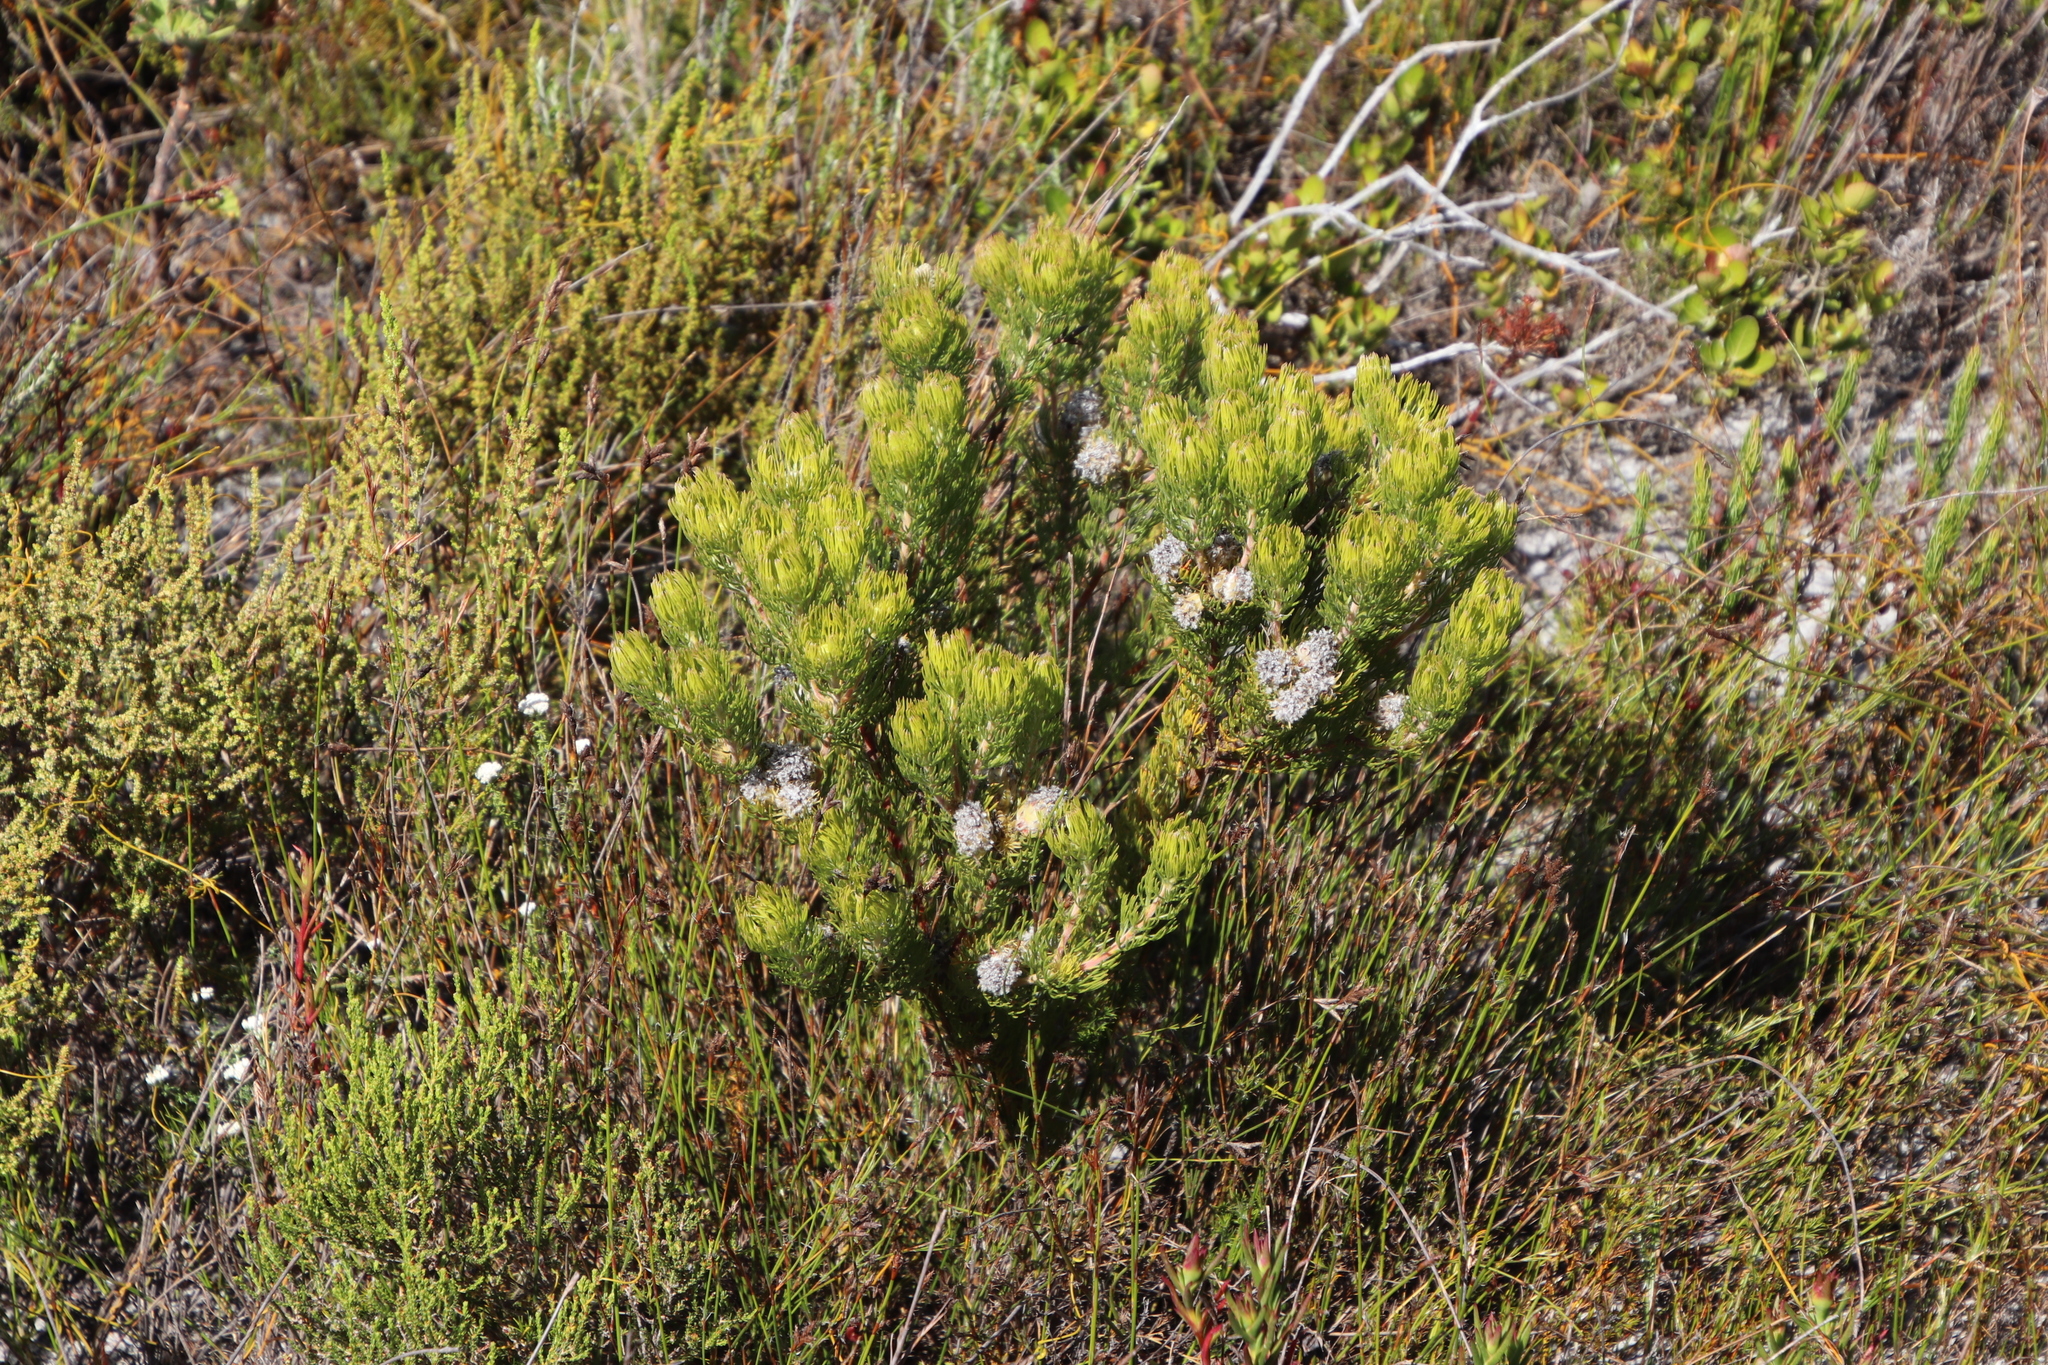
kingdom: Plantae
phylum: Tracheophyta
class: Magnoliopsida
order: Proteales
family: Proteaceae
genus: Serruria
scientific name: Serruria villosa
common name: Golden spiderhead
